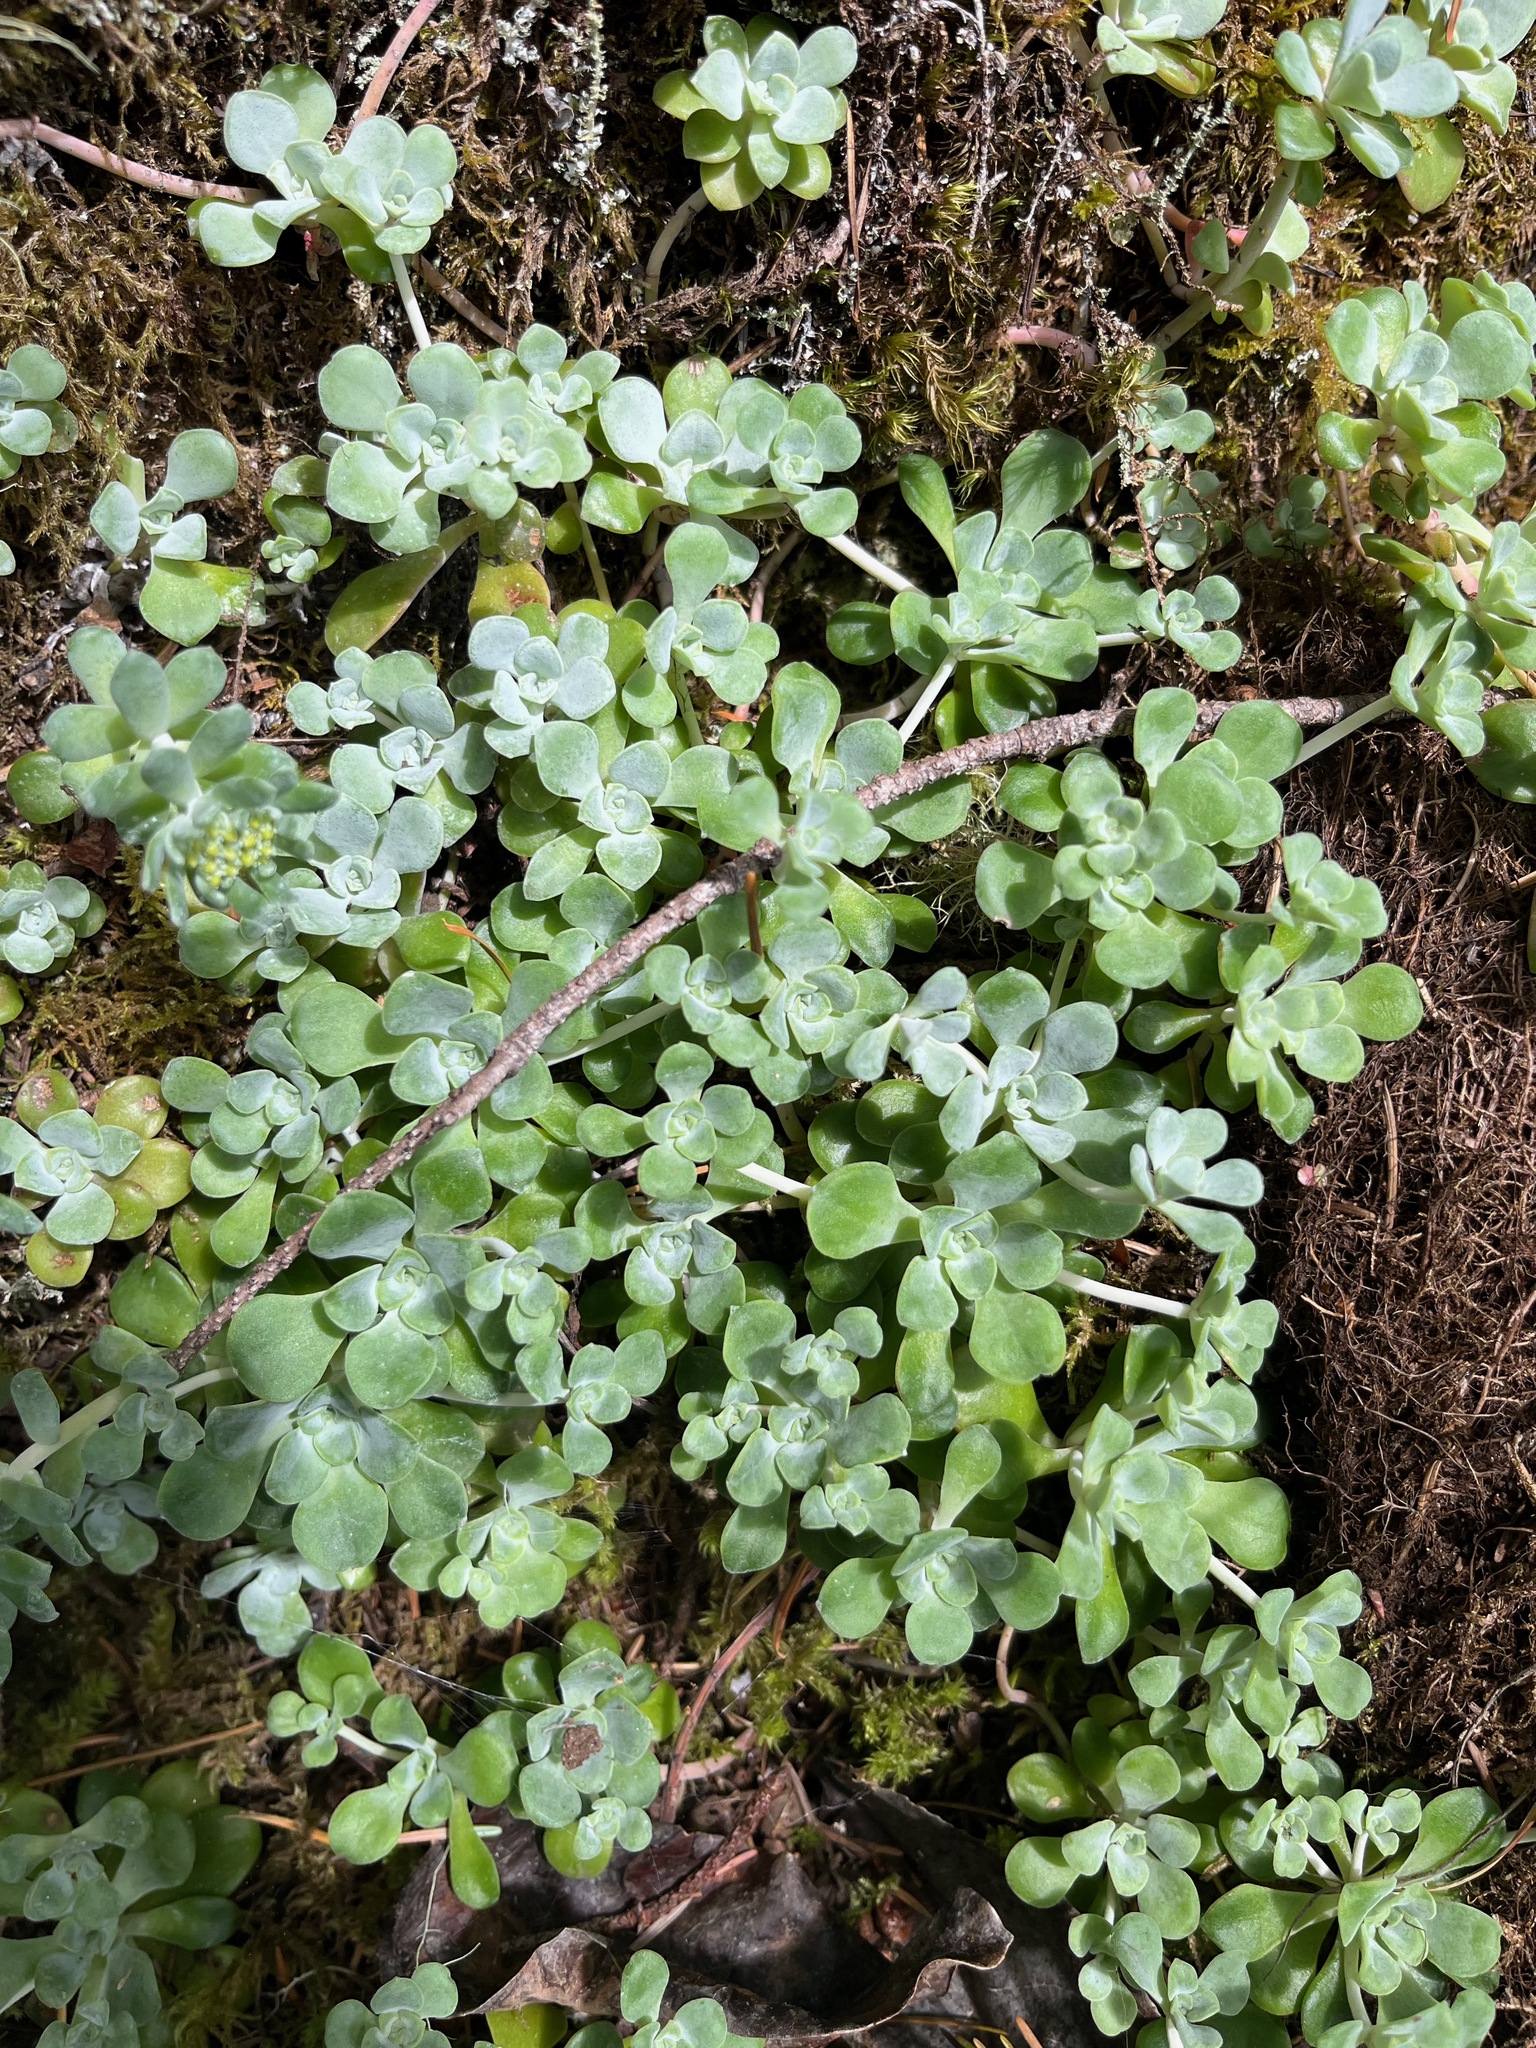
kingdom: Plantae
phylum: Tracheophyta
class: Magnoliopsida
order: Saxifragales
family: Crassulaceae
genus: Sedum
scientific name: Sedum spathulifolium
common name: Colorado stonecrop
